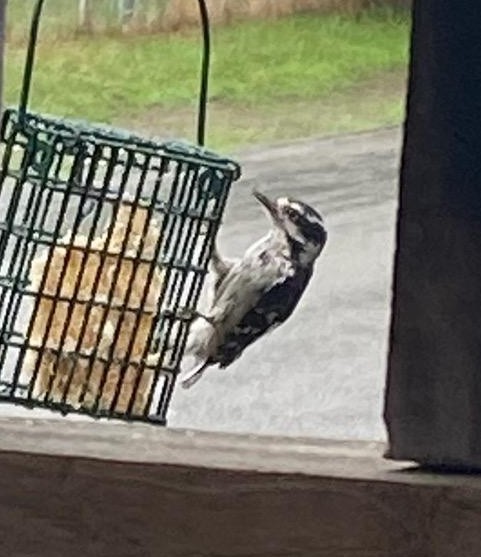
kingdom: Animalia
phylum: Chordata
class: Aves
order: Piciformes
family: Picidae
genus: Dryobates
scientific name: Dryobates pubescens
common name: Downy woodpecker
